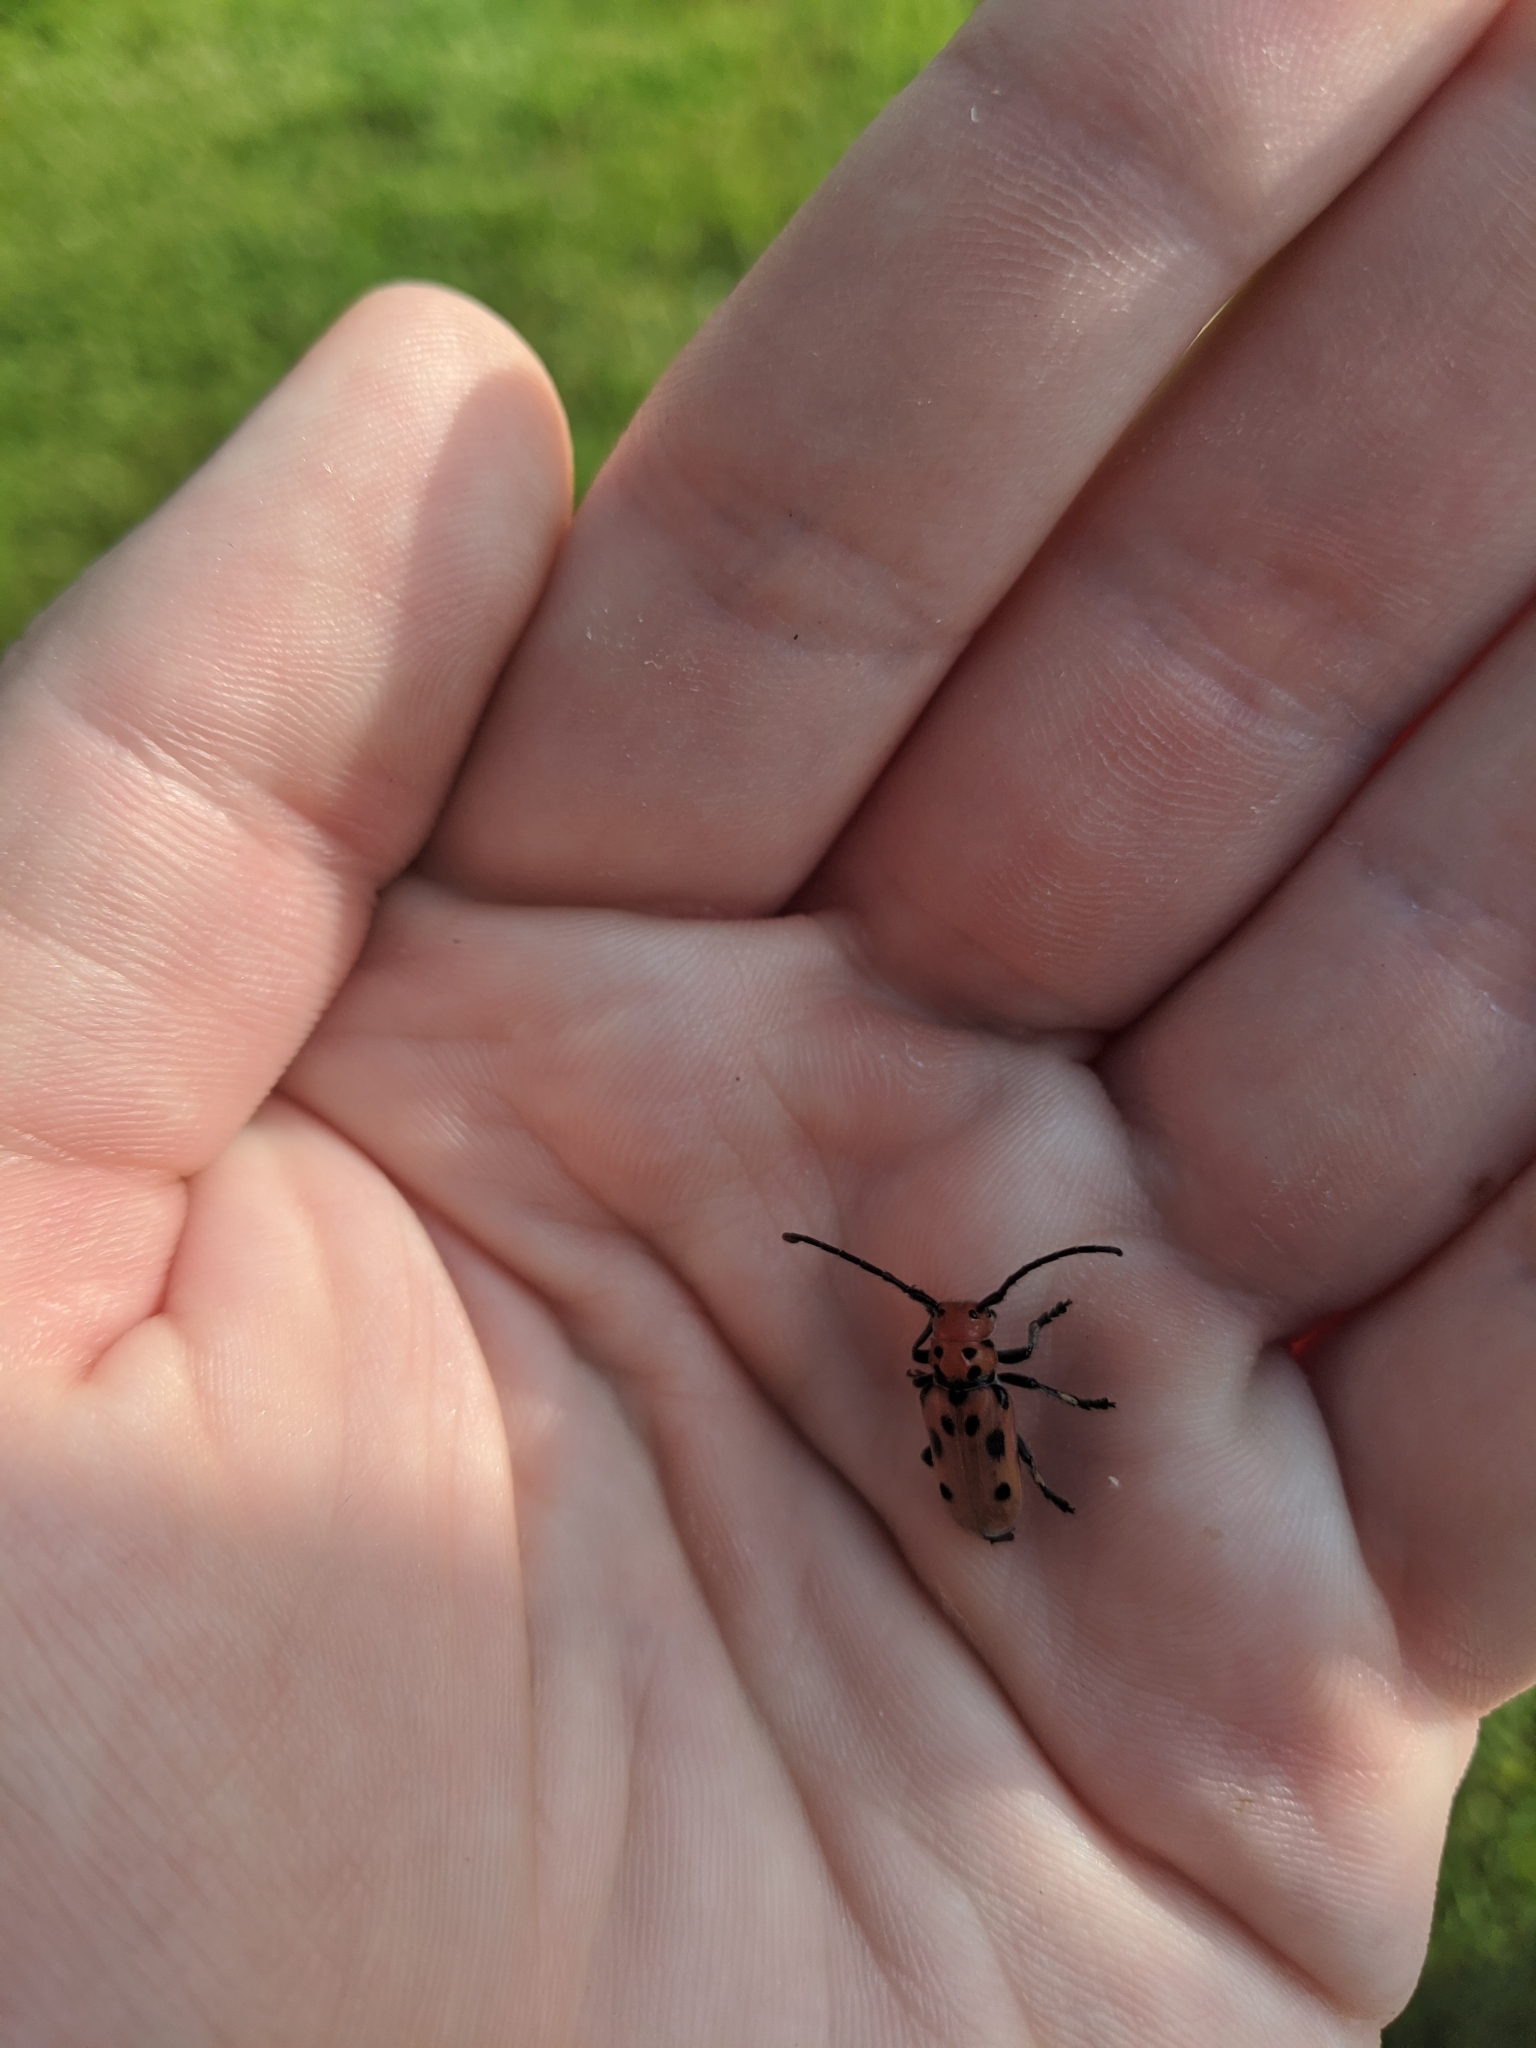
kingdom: Animalia
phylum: Arthropoda
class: Insecta
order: Coleoptera
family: Cerambycidae
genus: Tetraopes
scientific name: Tetraopes tetrophthalmus
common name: Red milkweed beetle
